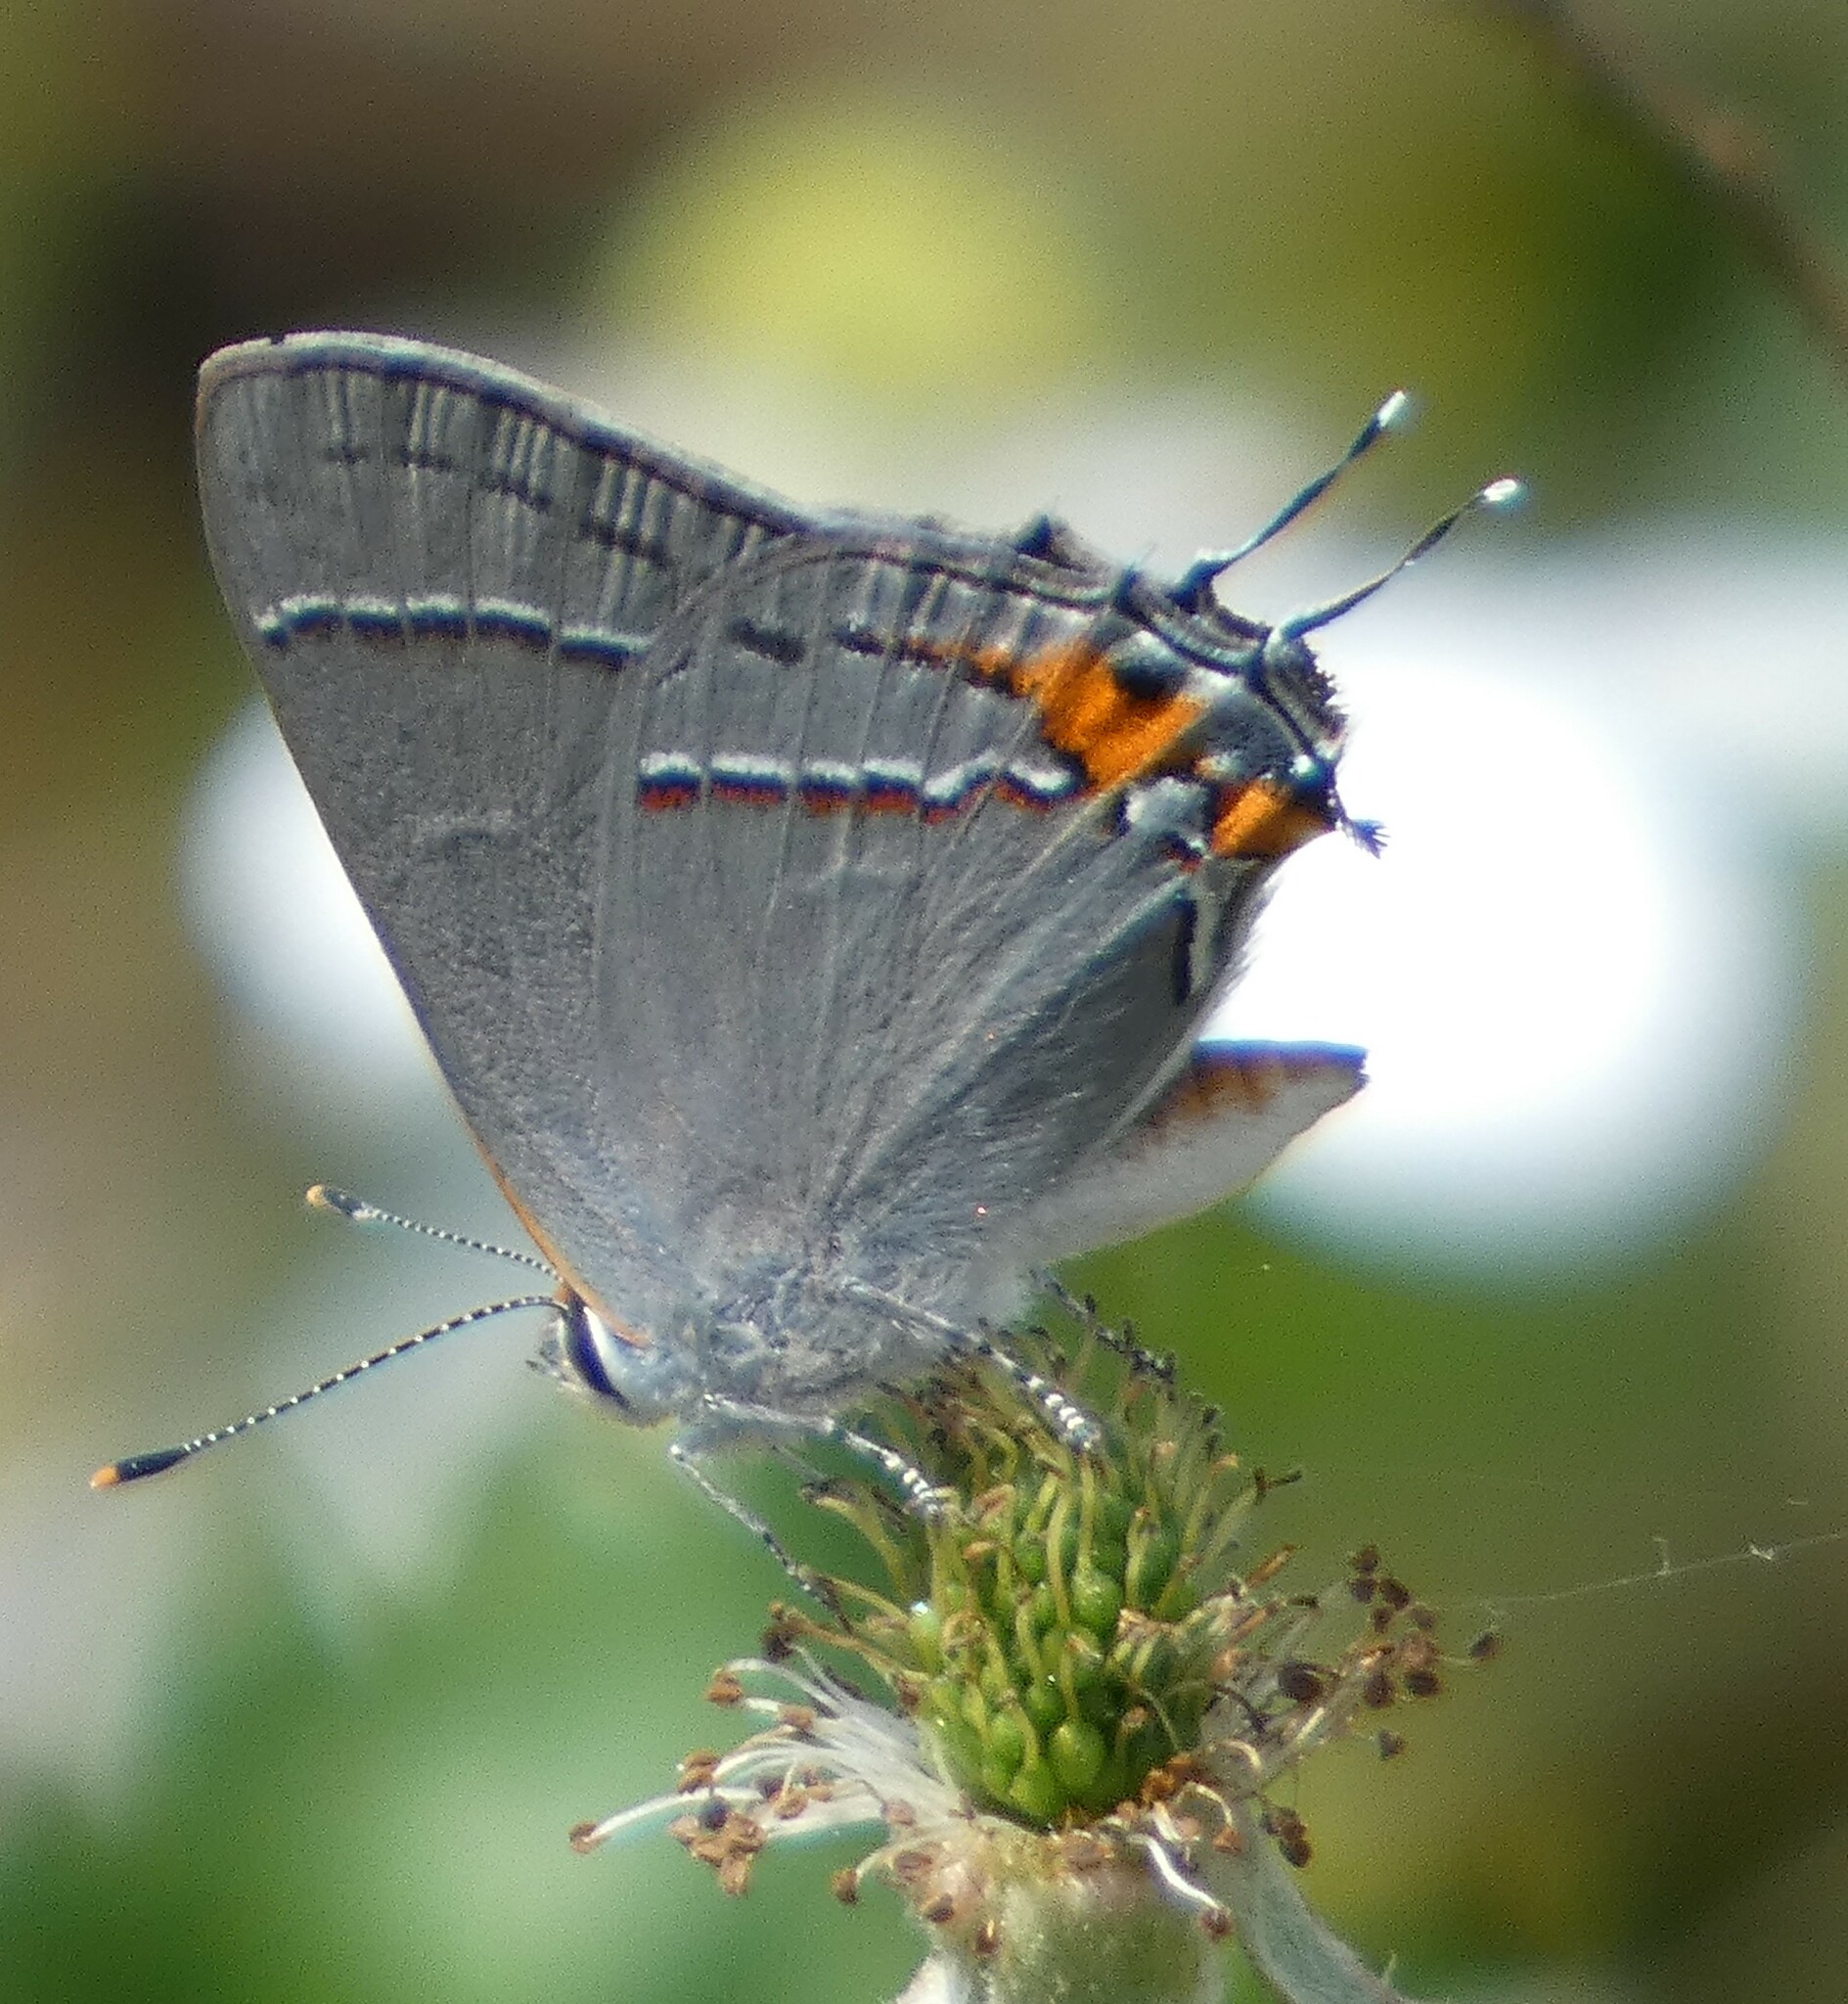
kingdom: Animalia
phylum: Arthropoda
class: Insecta
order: Lepidoptera
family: Lycaenidae
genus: Strymon
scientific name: Strymon melinus
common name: Gray hairstreak
